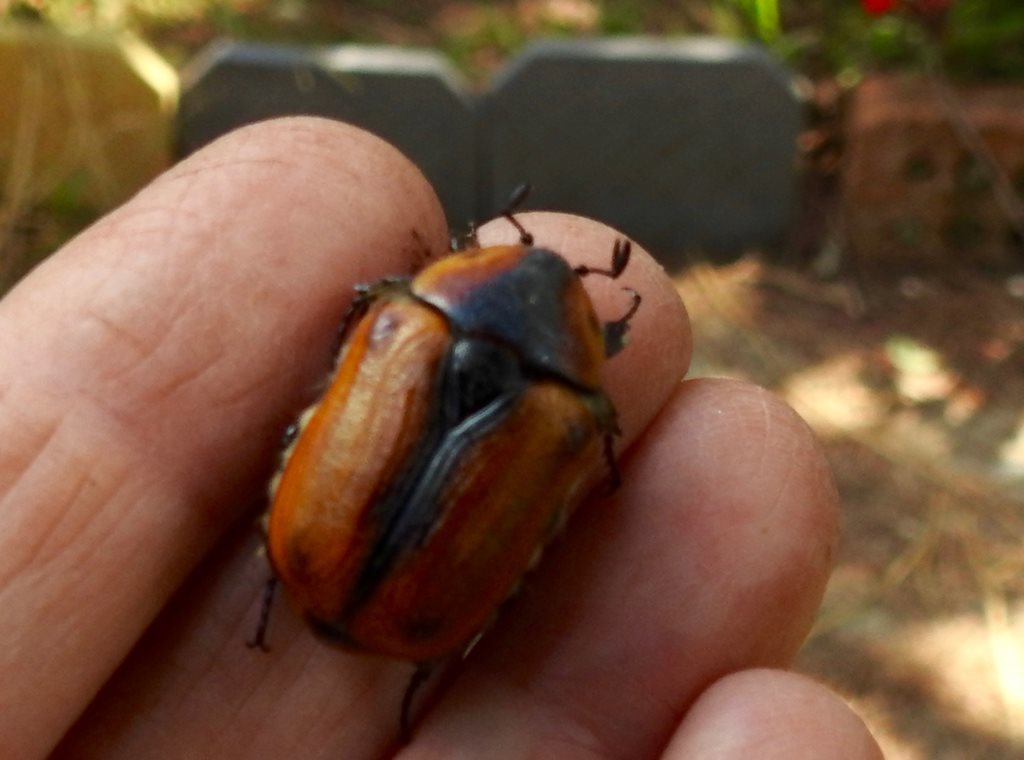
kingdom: Animalia
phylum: Arthropoda
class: Insecta
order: Coleoptera
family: Scarabaeidae
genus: Chondropyga
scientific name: Chondropyga dorsalis
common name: Cowboy beetle
